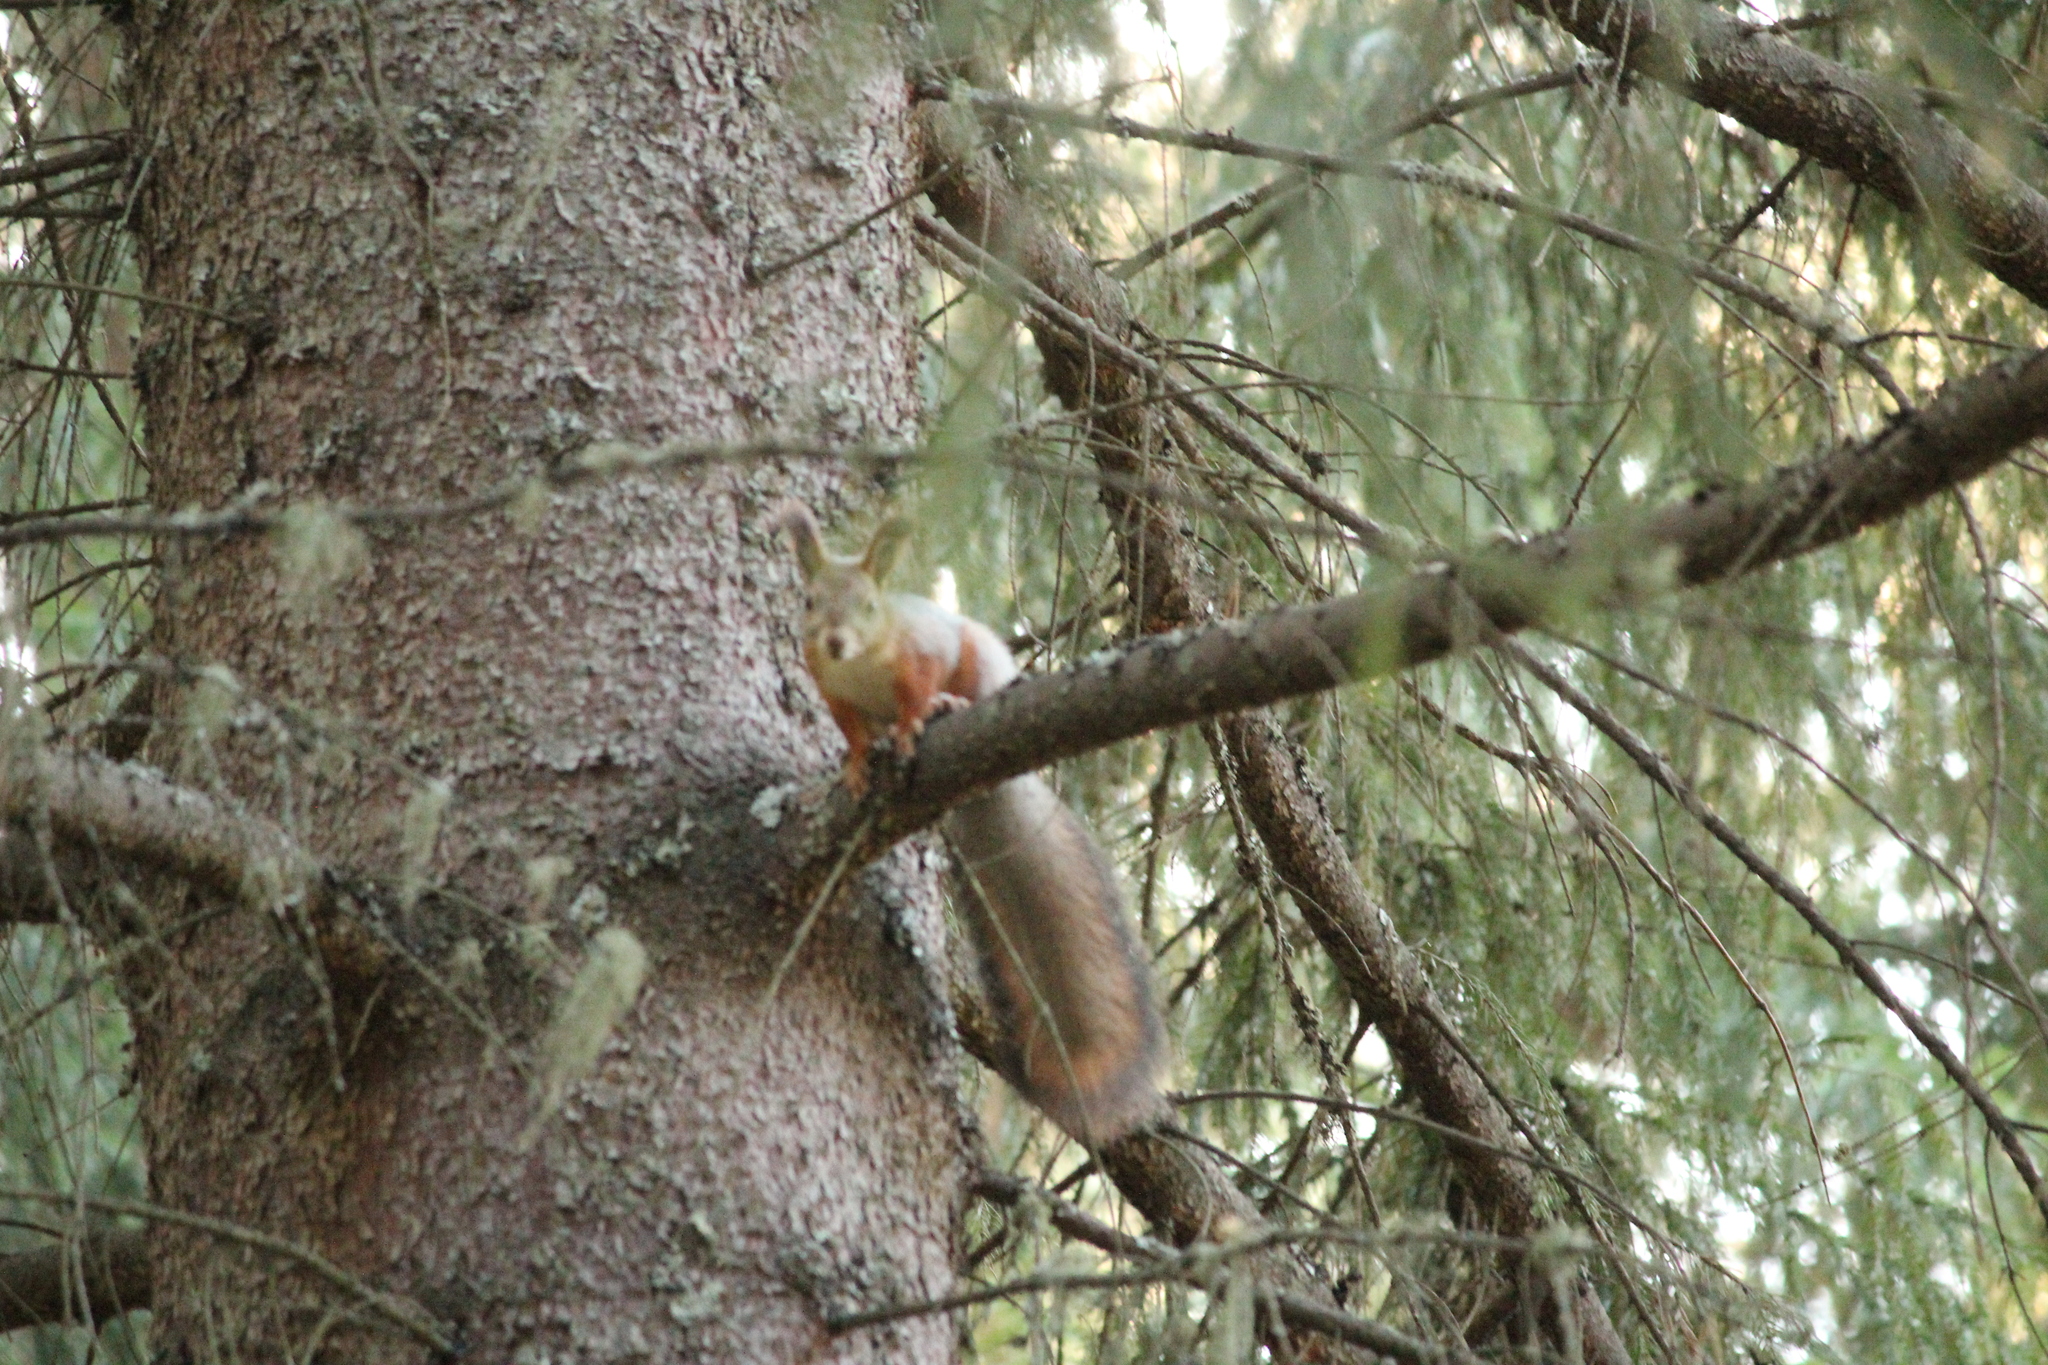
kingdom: Animalia
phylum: Chordata
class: Mammalia
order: Rodentia
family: Sciuridae
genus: Sciurus
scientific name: Sciurus vulgaris
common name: Eurasian red squirrel
